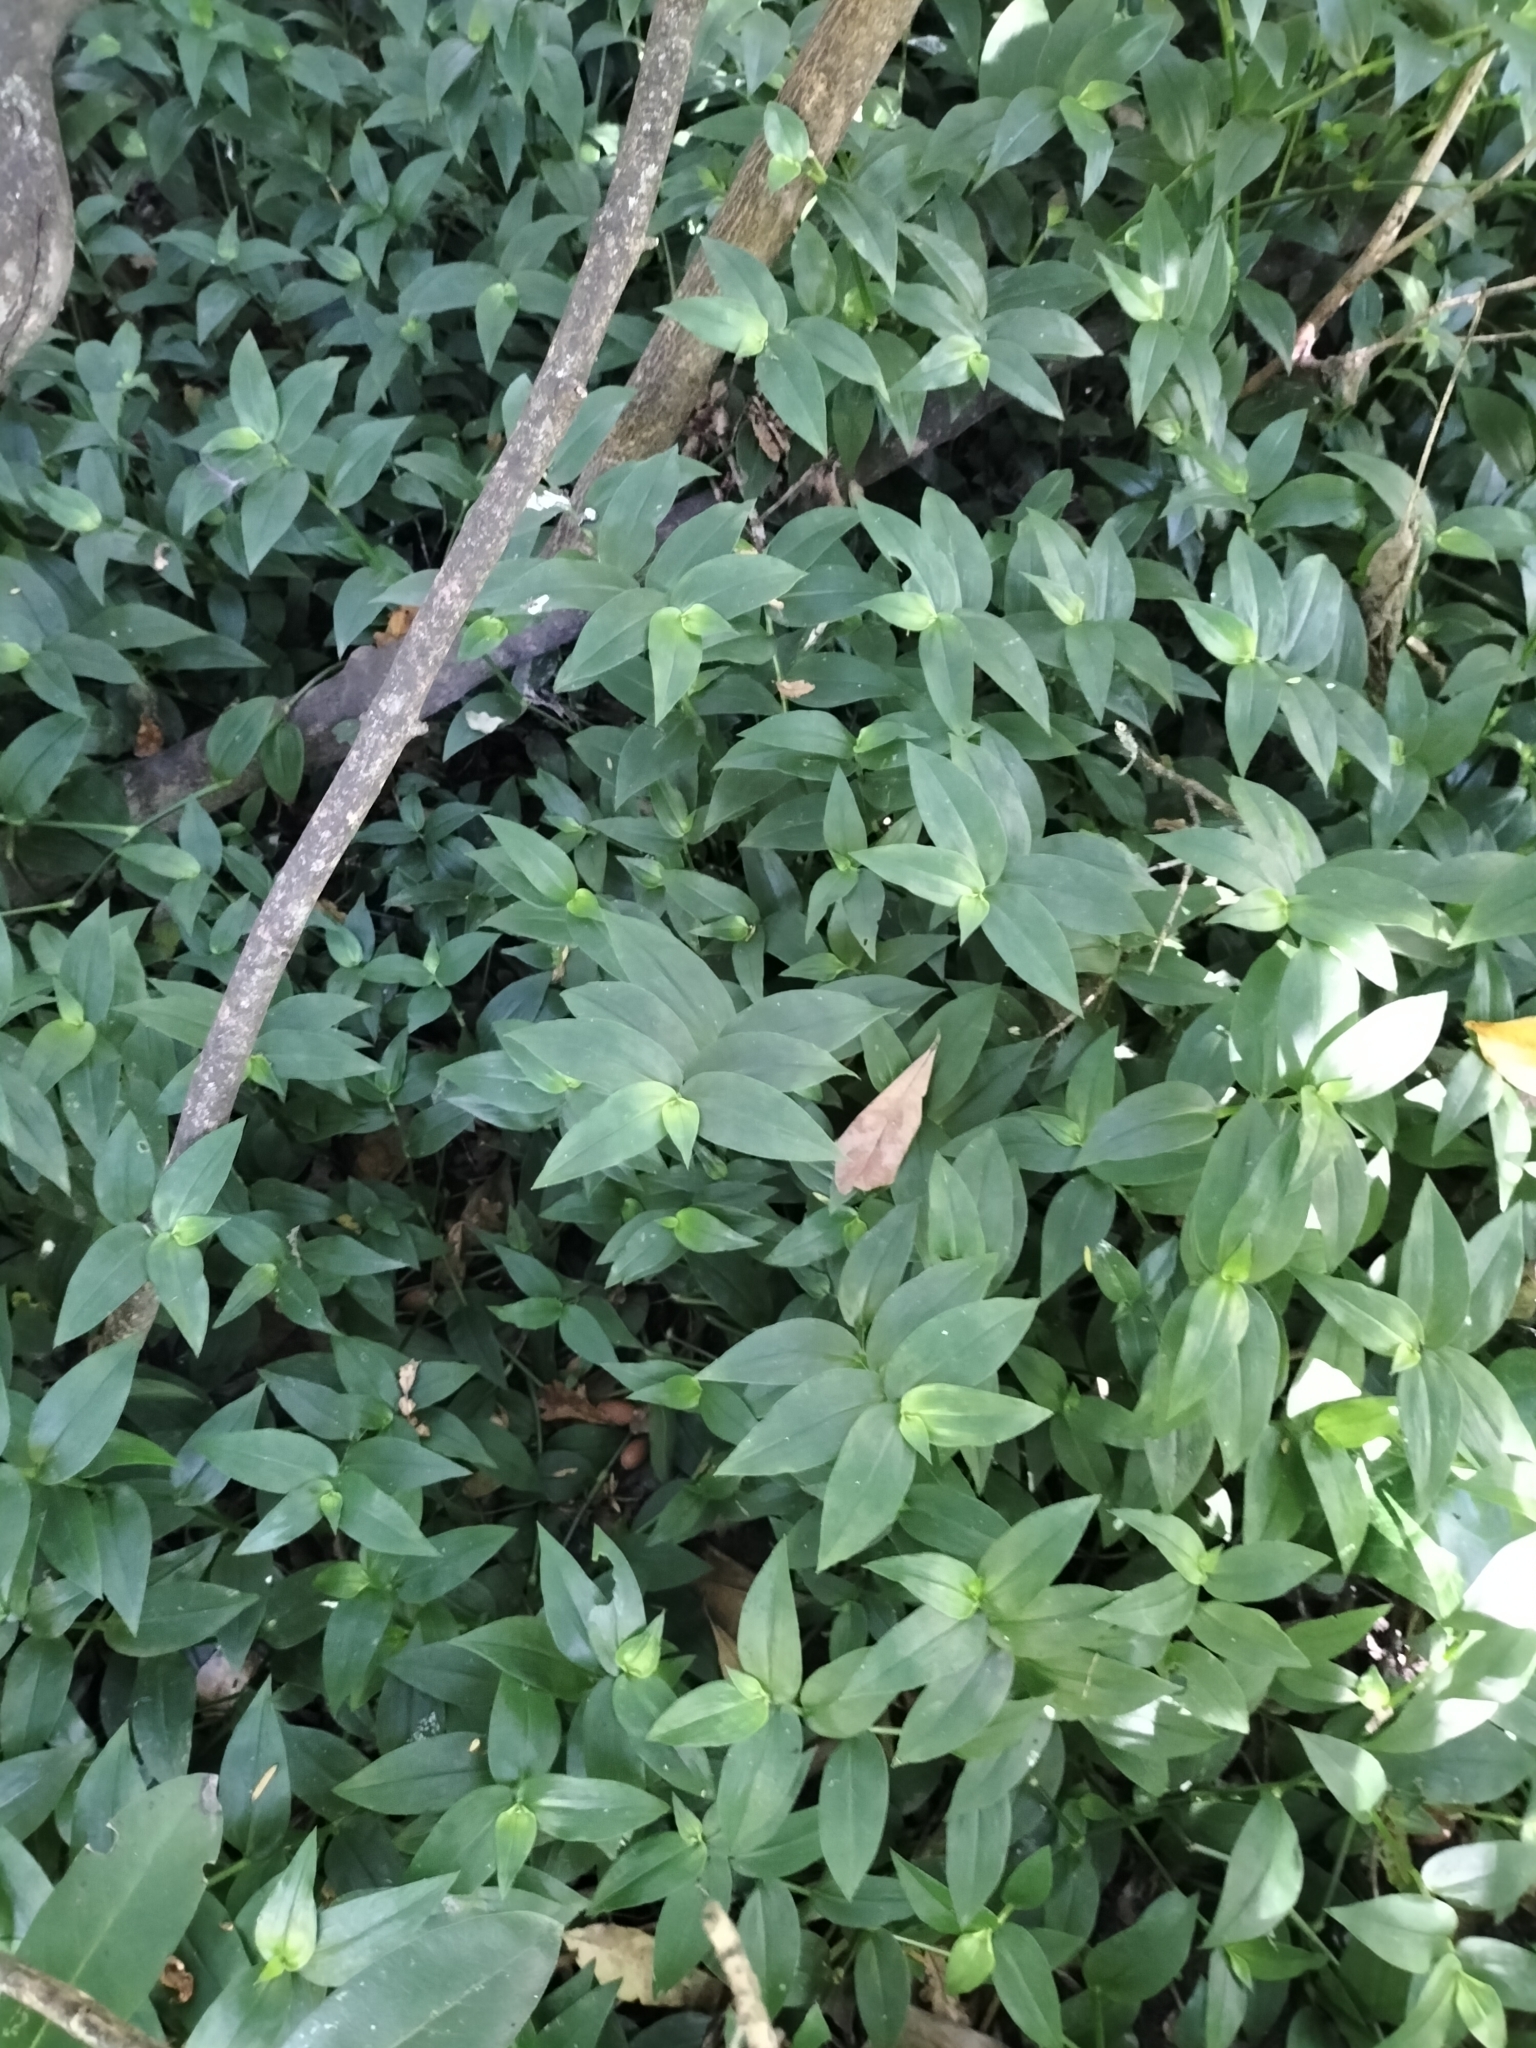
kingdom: Plantae
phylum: Tracheophyta
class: Liliopsida
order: Commelinales
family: Commelinaceae
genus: Tradescantia
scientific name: Tradescantia fluminensis
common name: Wandering-jew
